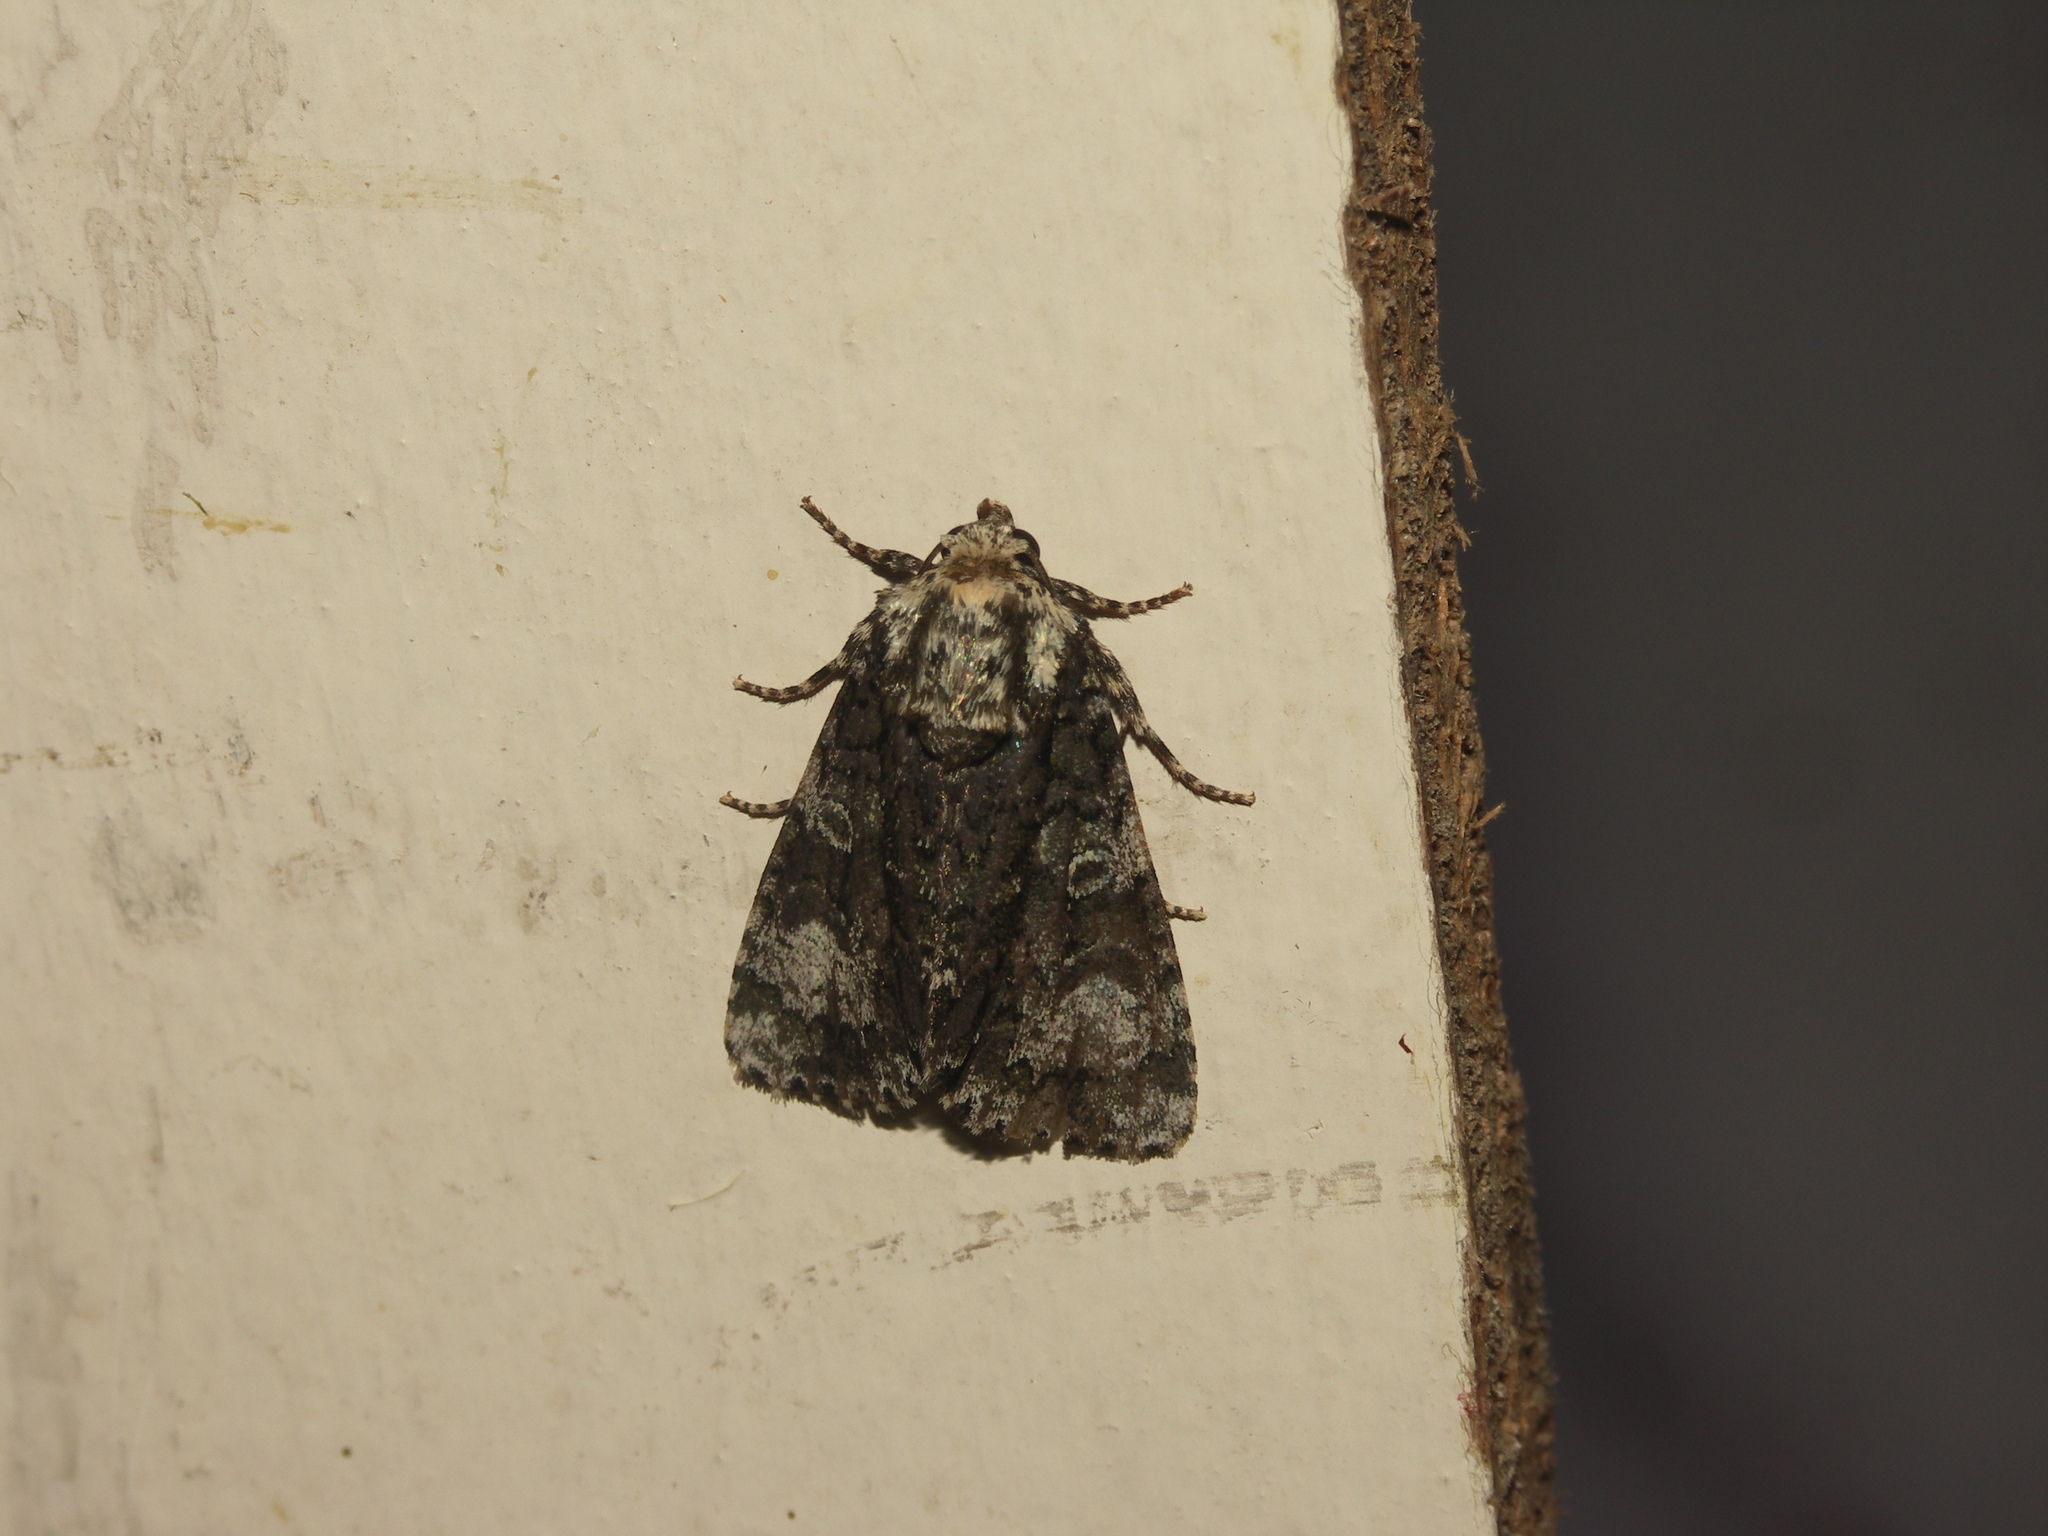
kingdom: Animalia
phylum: Arthropoda
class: Insecta
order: Lepidoptera
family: Noctuidae
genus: Craniophora
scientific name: Craniophora ligustri
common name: Coronet
